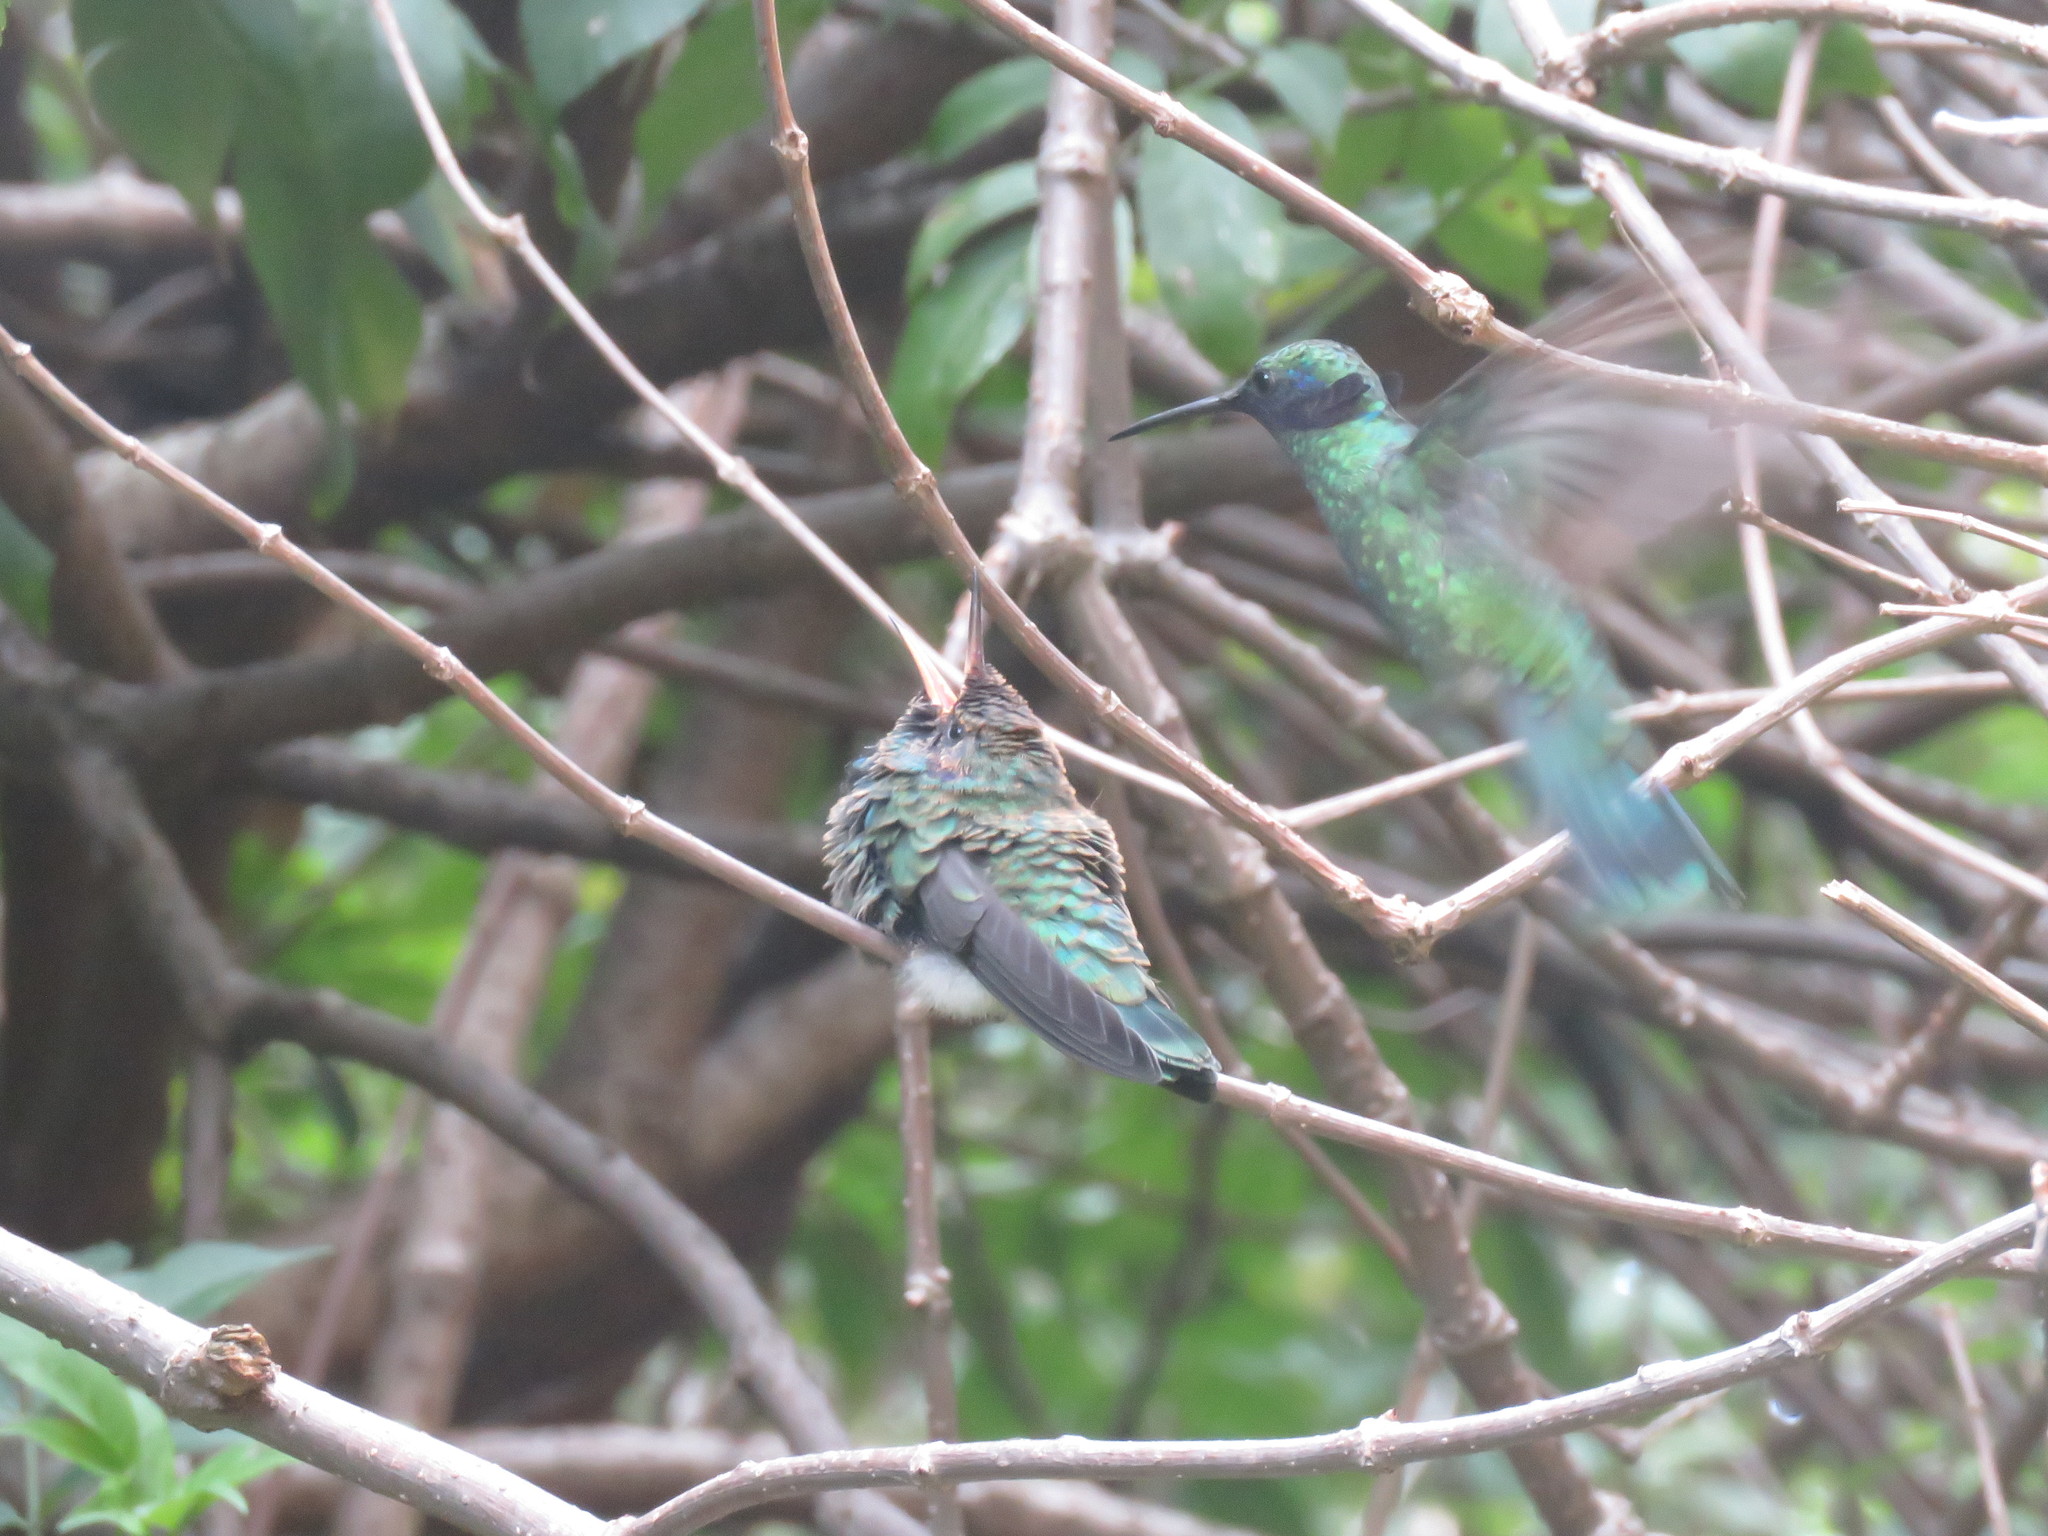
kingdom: Animalia
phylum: Chordata
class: Aves
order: Apodiformes
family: Trochilidae
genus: Colibri
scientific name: Colibri coruscans
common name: Sparkling violetear
